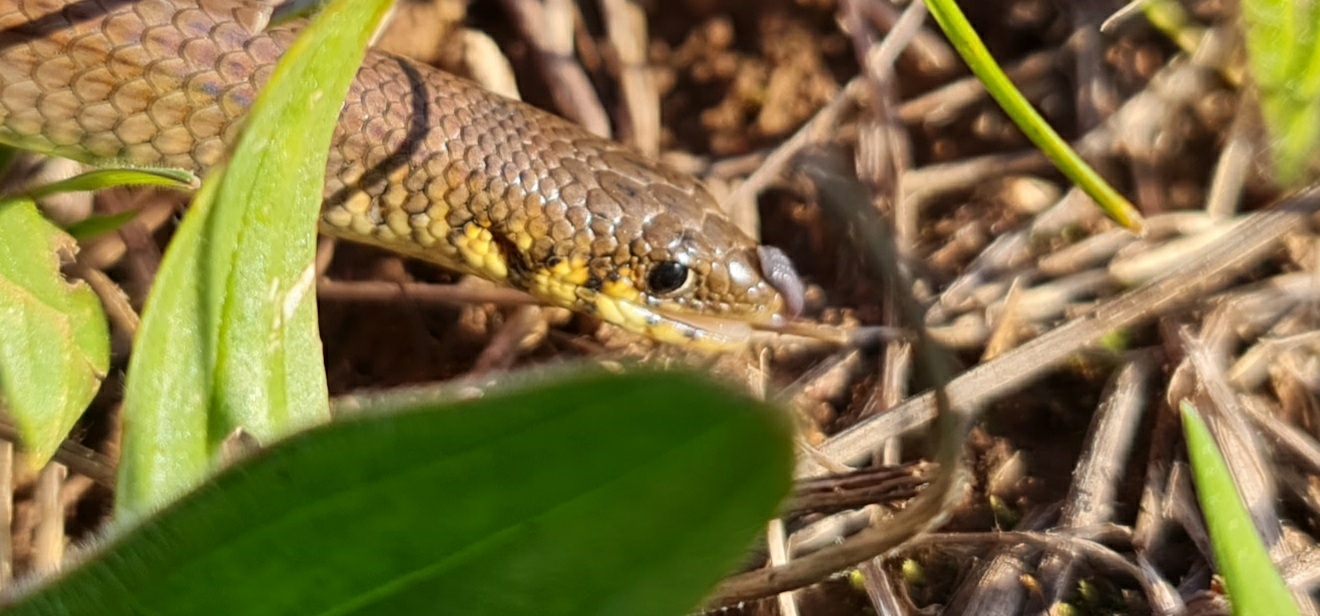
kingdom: Animalia
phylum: Chordata
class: Squamata
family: Pygopodidae
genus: Delma
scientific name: Delma molleri
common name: Gulfs delma
